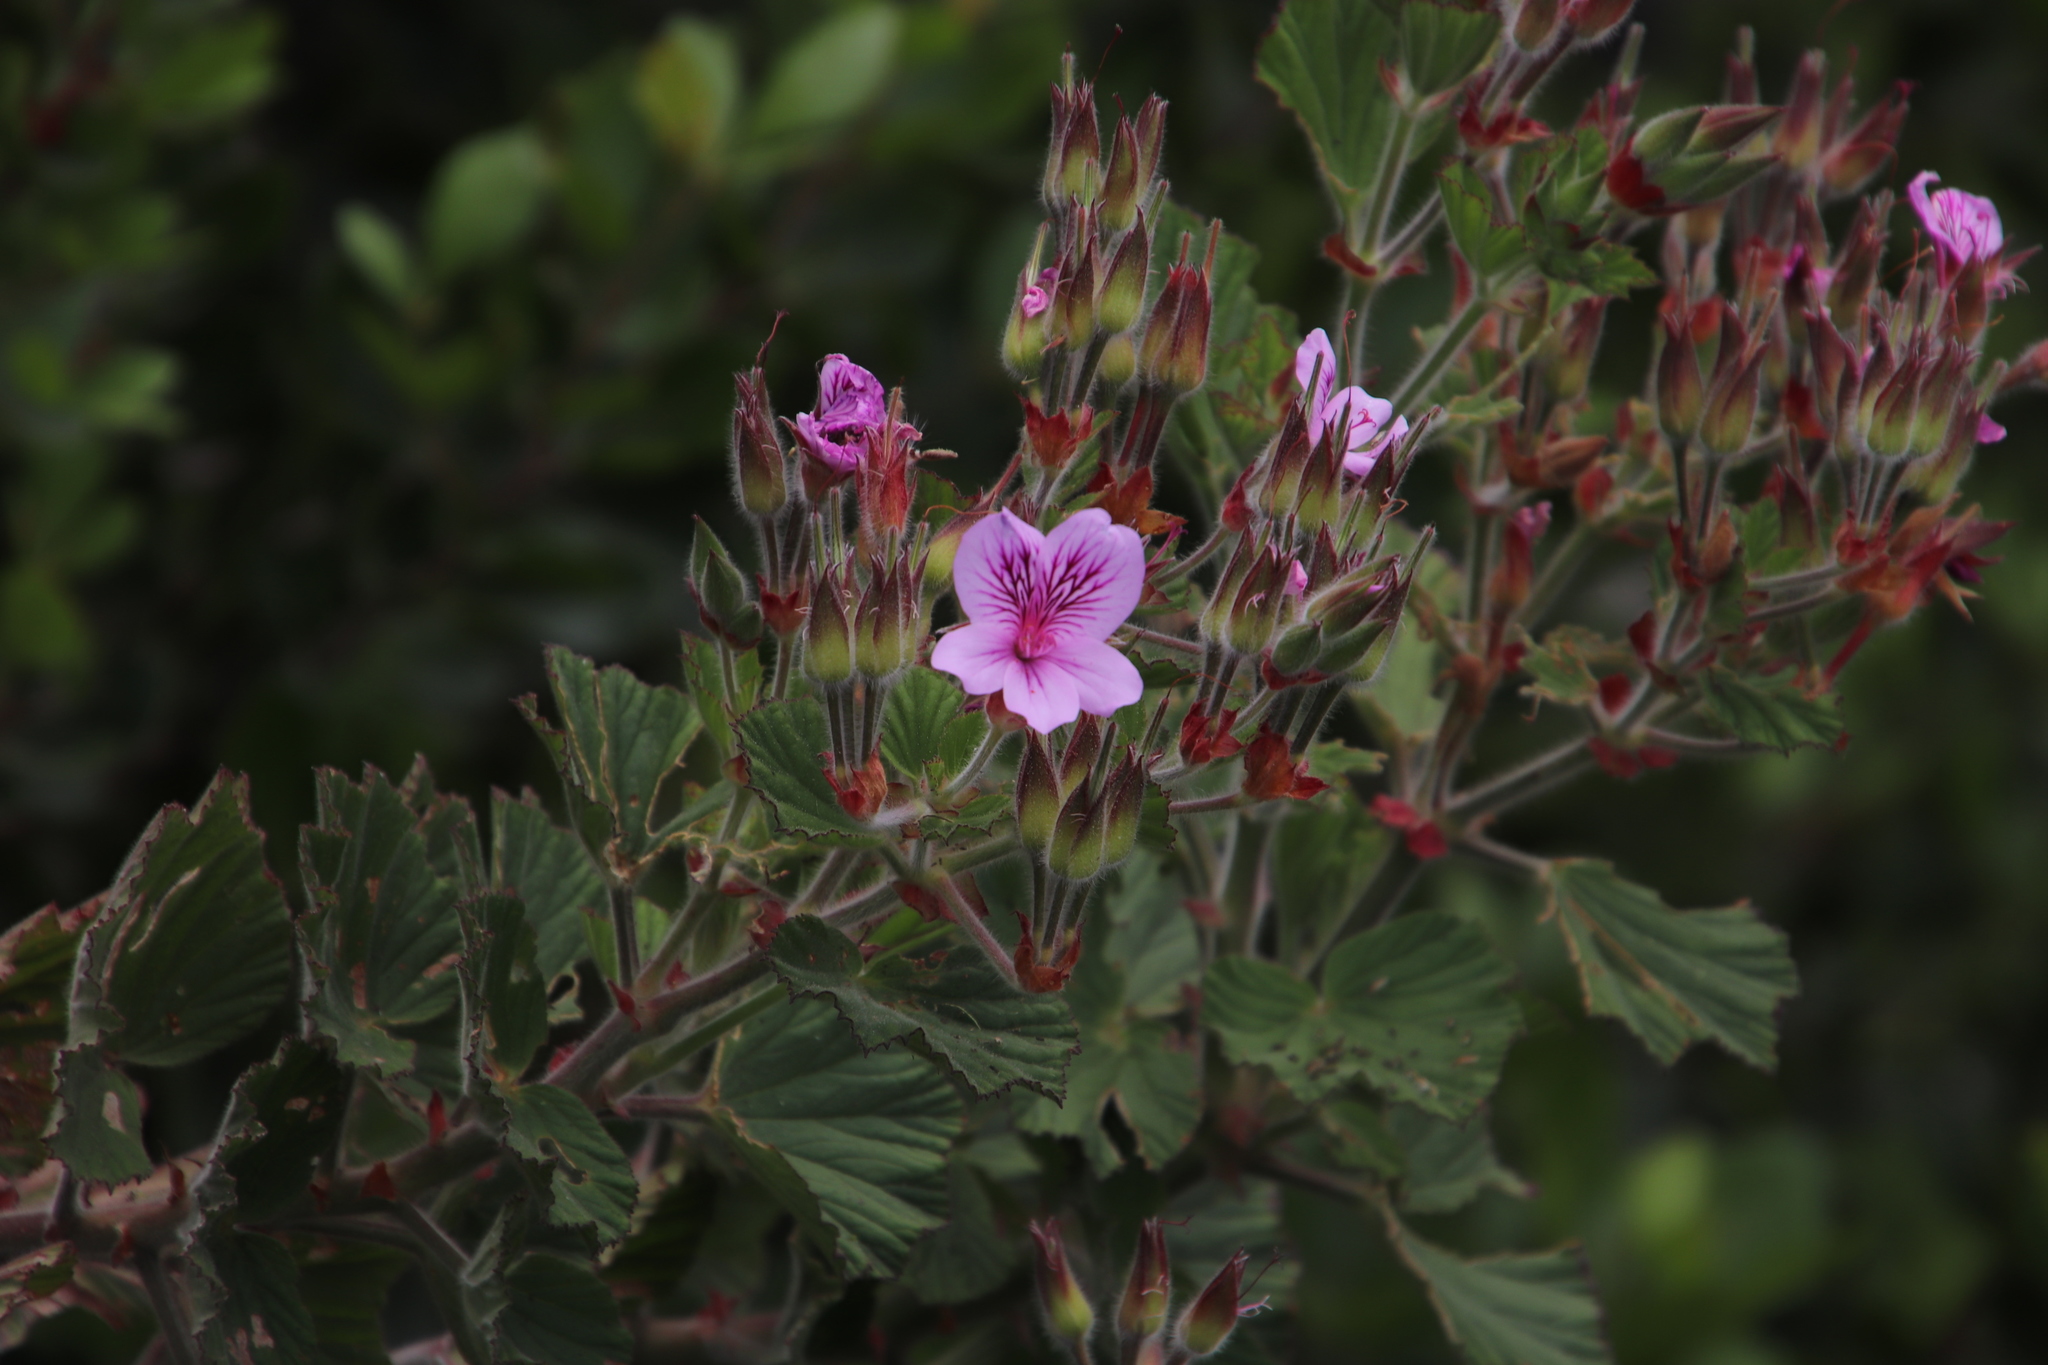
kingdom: Plantae
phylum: Tracheophyta
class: Magnoliopsida
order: Geraniales
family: Geraniaceae
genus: Pelargonium
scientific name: Pelargonium cucullatum
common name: Tree pelargonium
